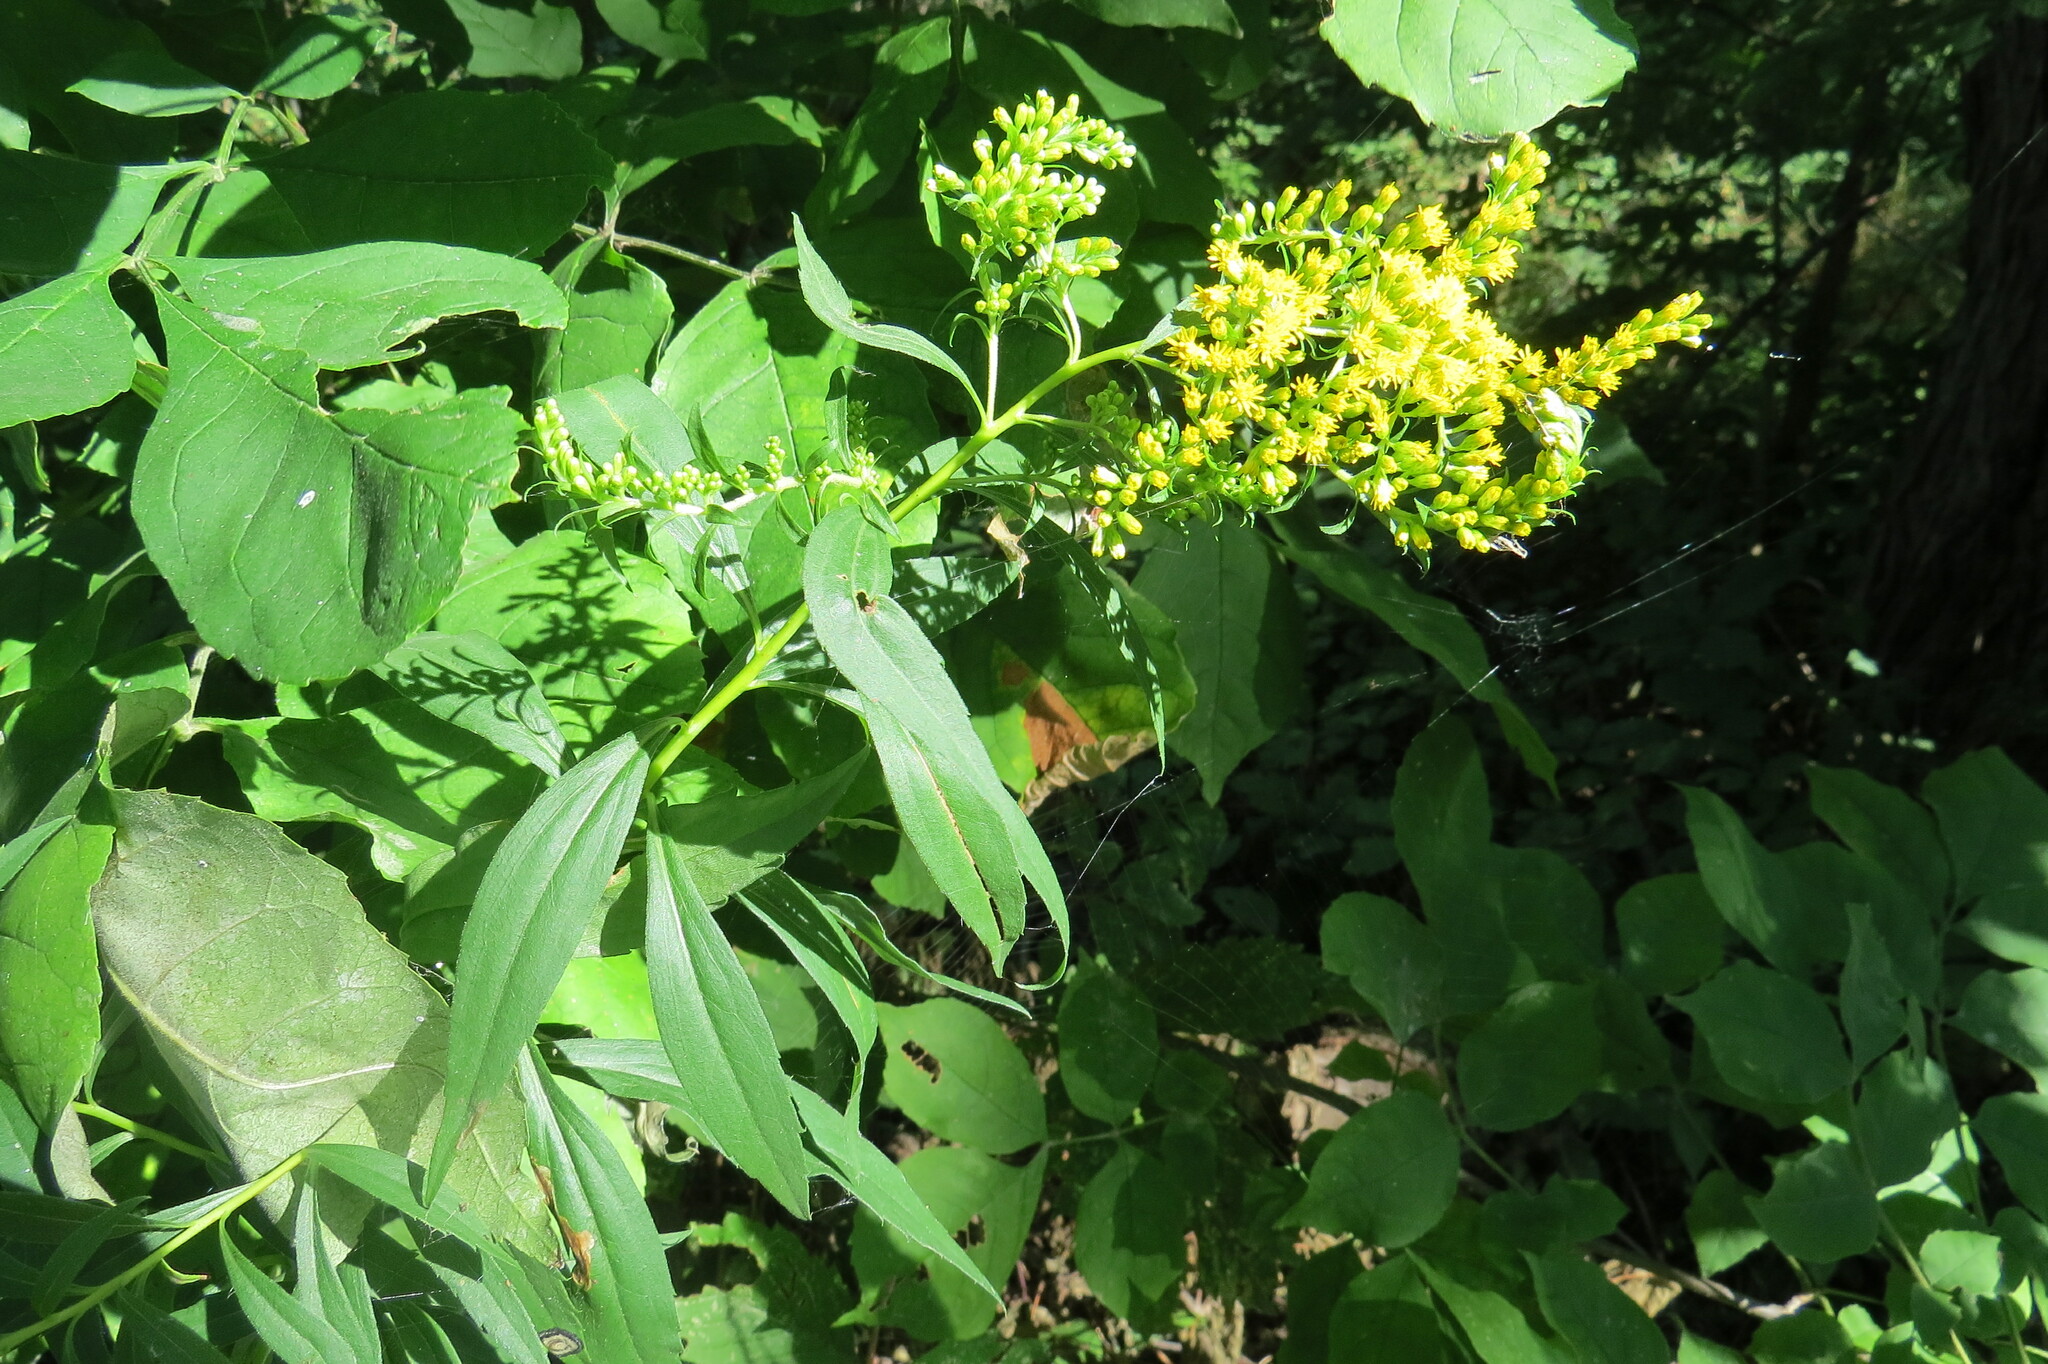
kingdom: Plantae
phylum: Tracheophyta
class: Magnoliopsida
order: Asterales
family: Asteraceae
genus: Solidago
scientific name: Solidago gigantea
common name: Giant goldenrod
